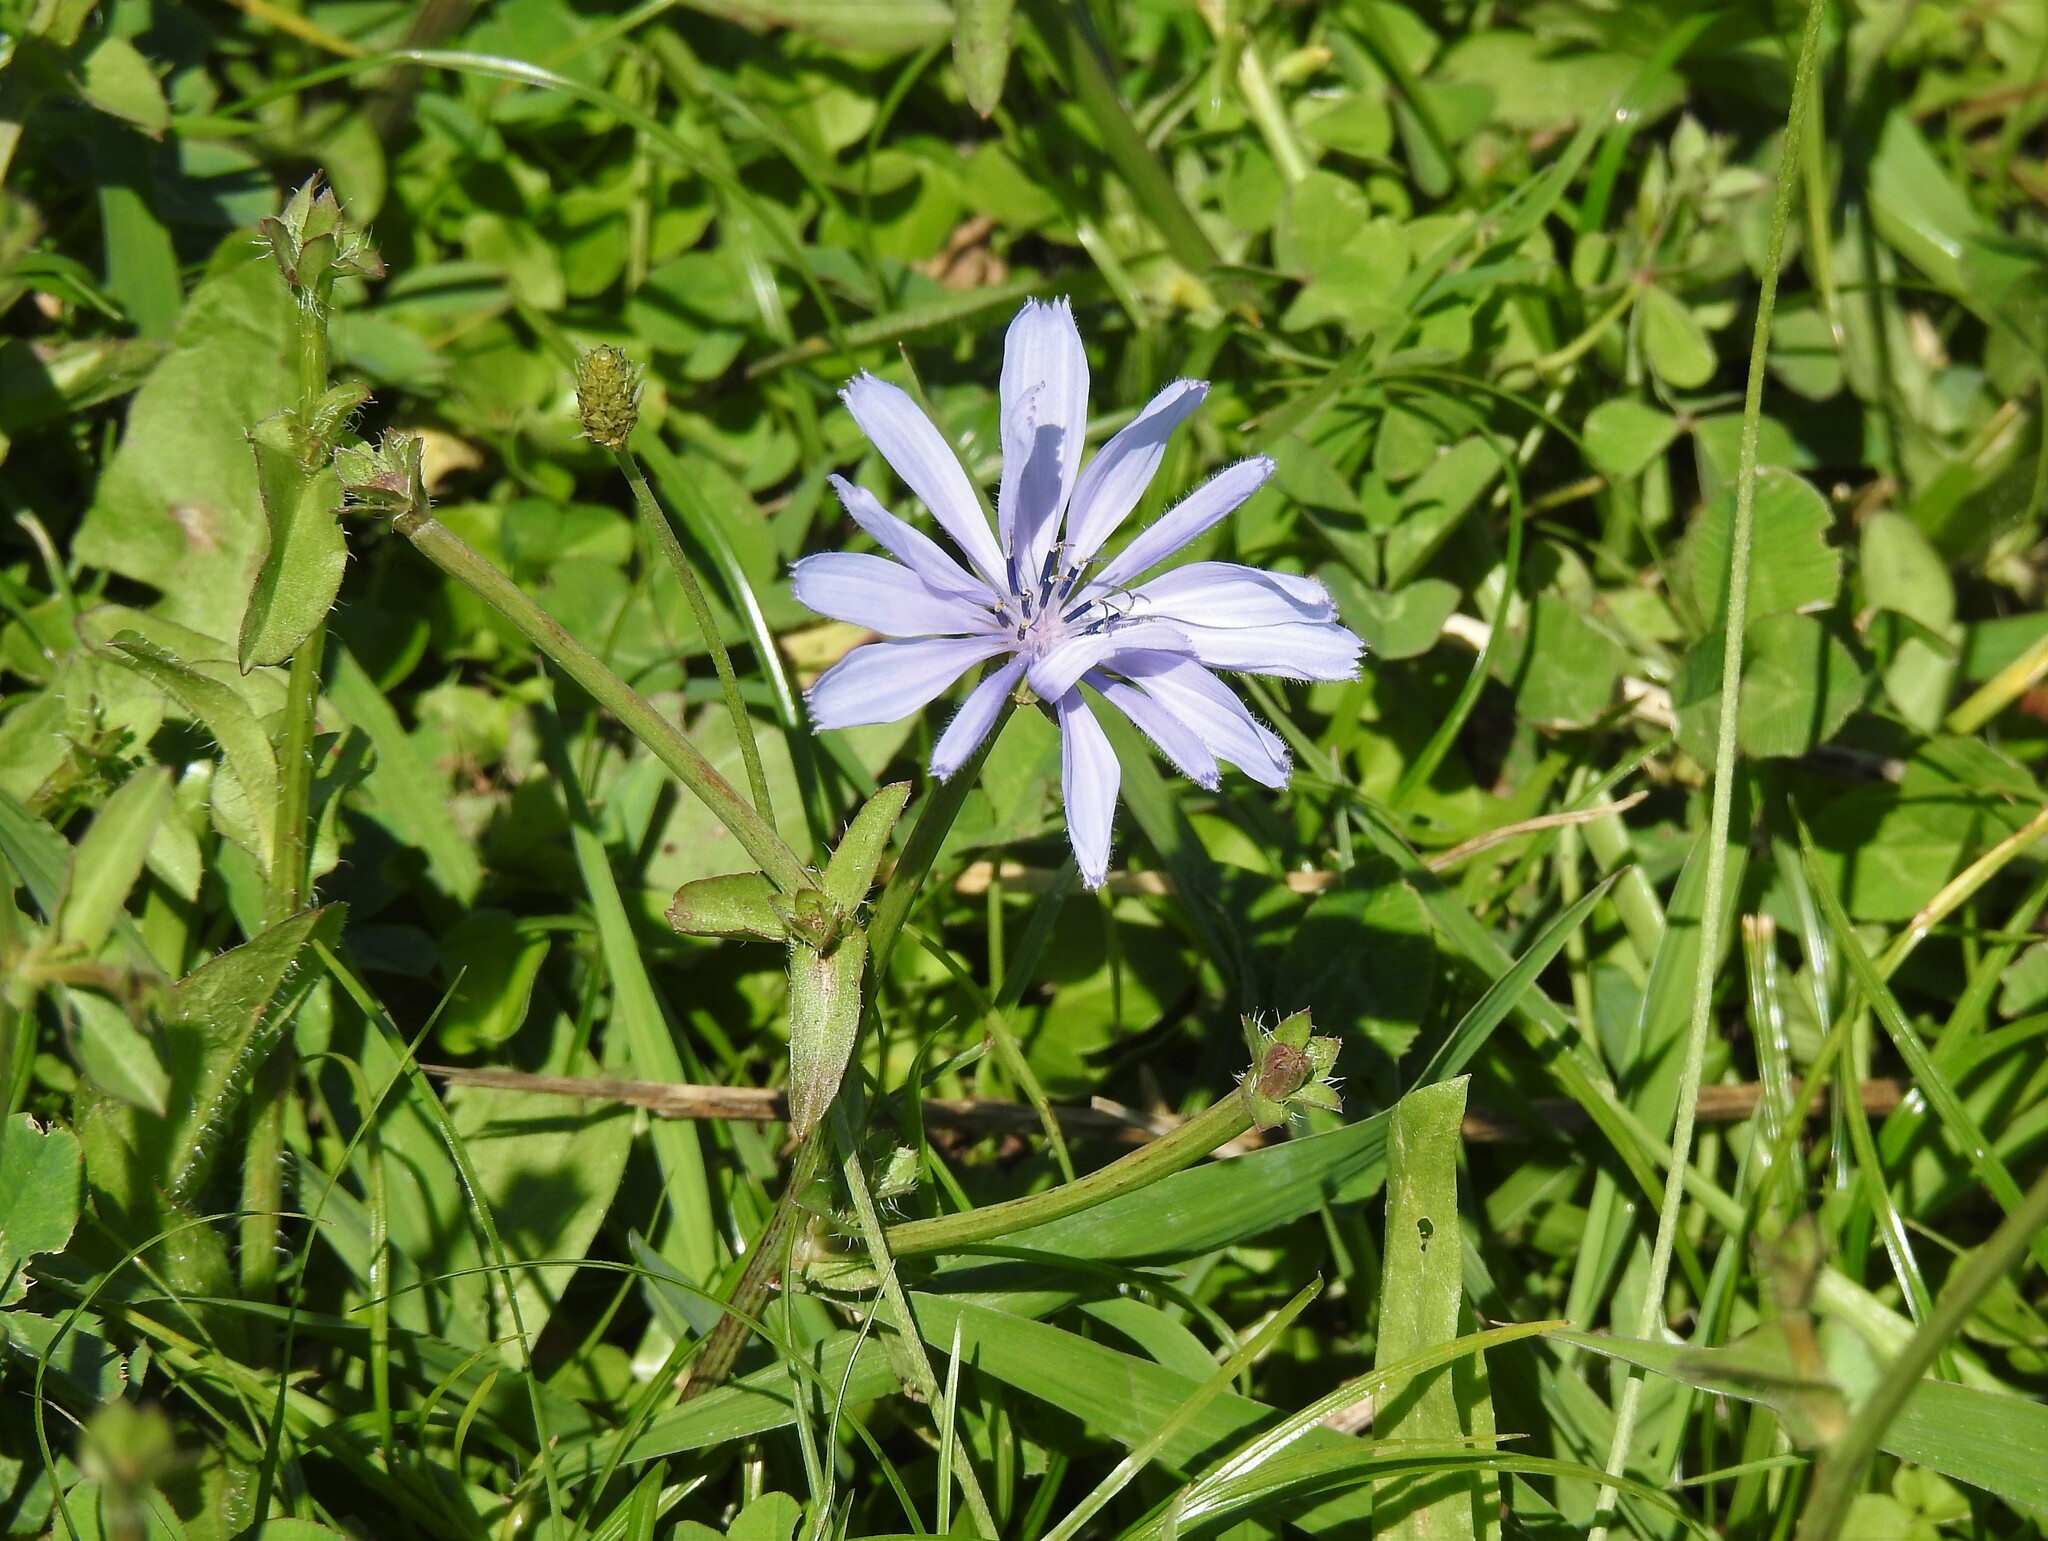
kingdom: Plantae
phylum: Tracheophyta
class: Magnoliopsida
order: Asterales
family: Asteraceae
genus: Cichorium
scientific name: Cichorium intybus
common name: Chicory
